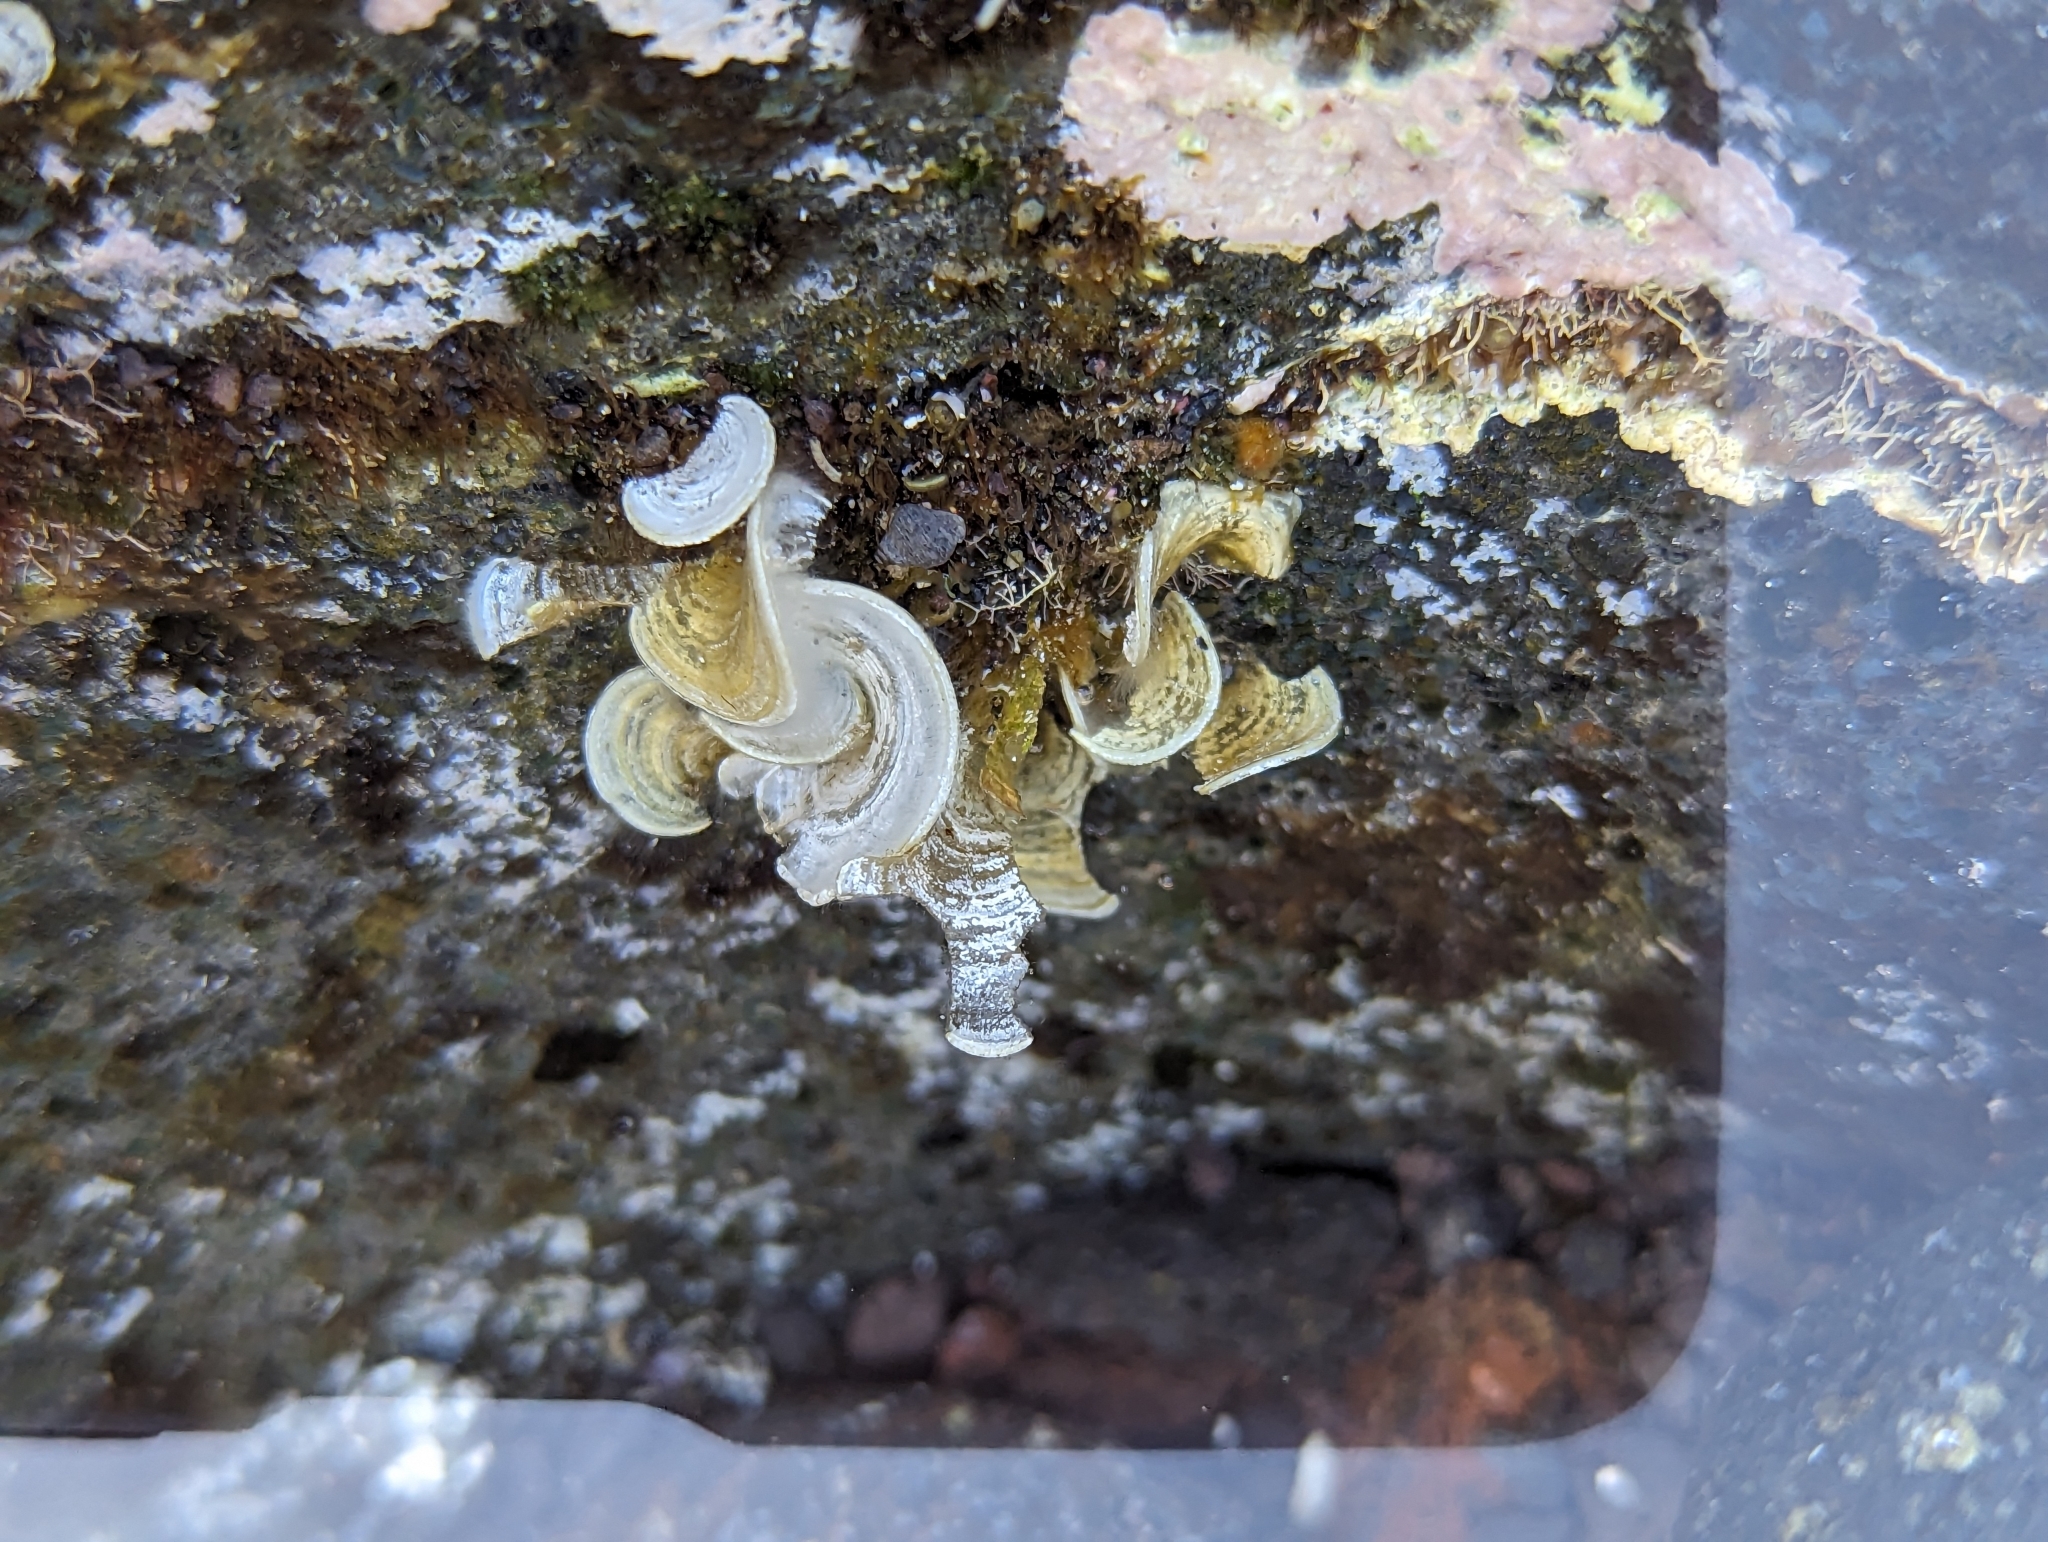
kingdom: Chromista
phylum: Ochrophyta
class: Phaeophyceae
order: Dictyotales
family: Dictyotaceae
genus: Padina
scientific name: Padina pavonica
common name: Turkey feather alga
